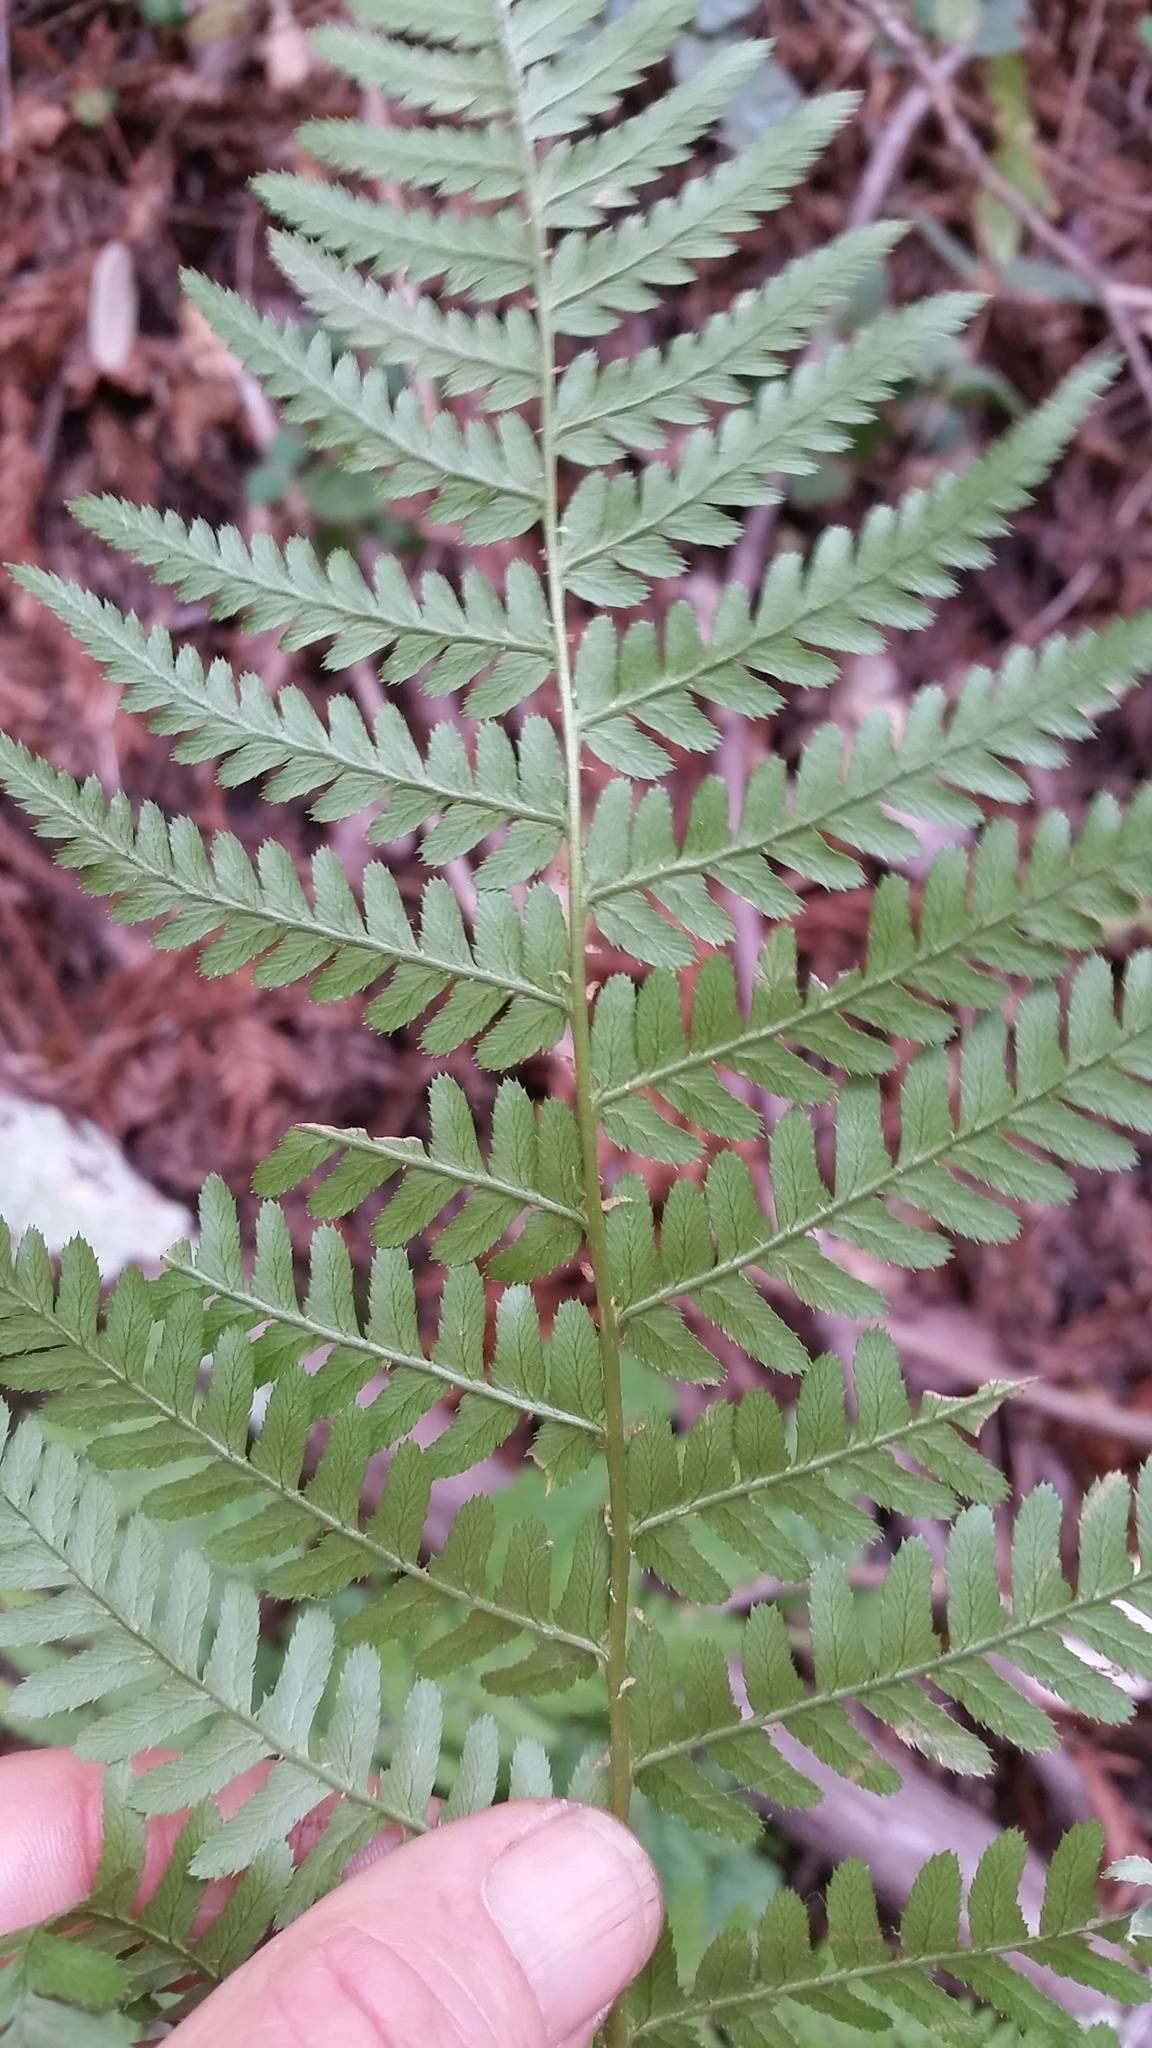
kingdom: Plantae
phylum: Tracheophyta
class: Polypodiopsida
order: Polypodiales
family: Dryopteridaceae
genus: Dryopteris
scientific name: Dryopteris arguta
